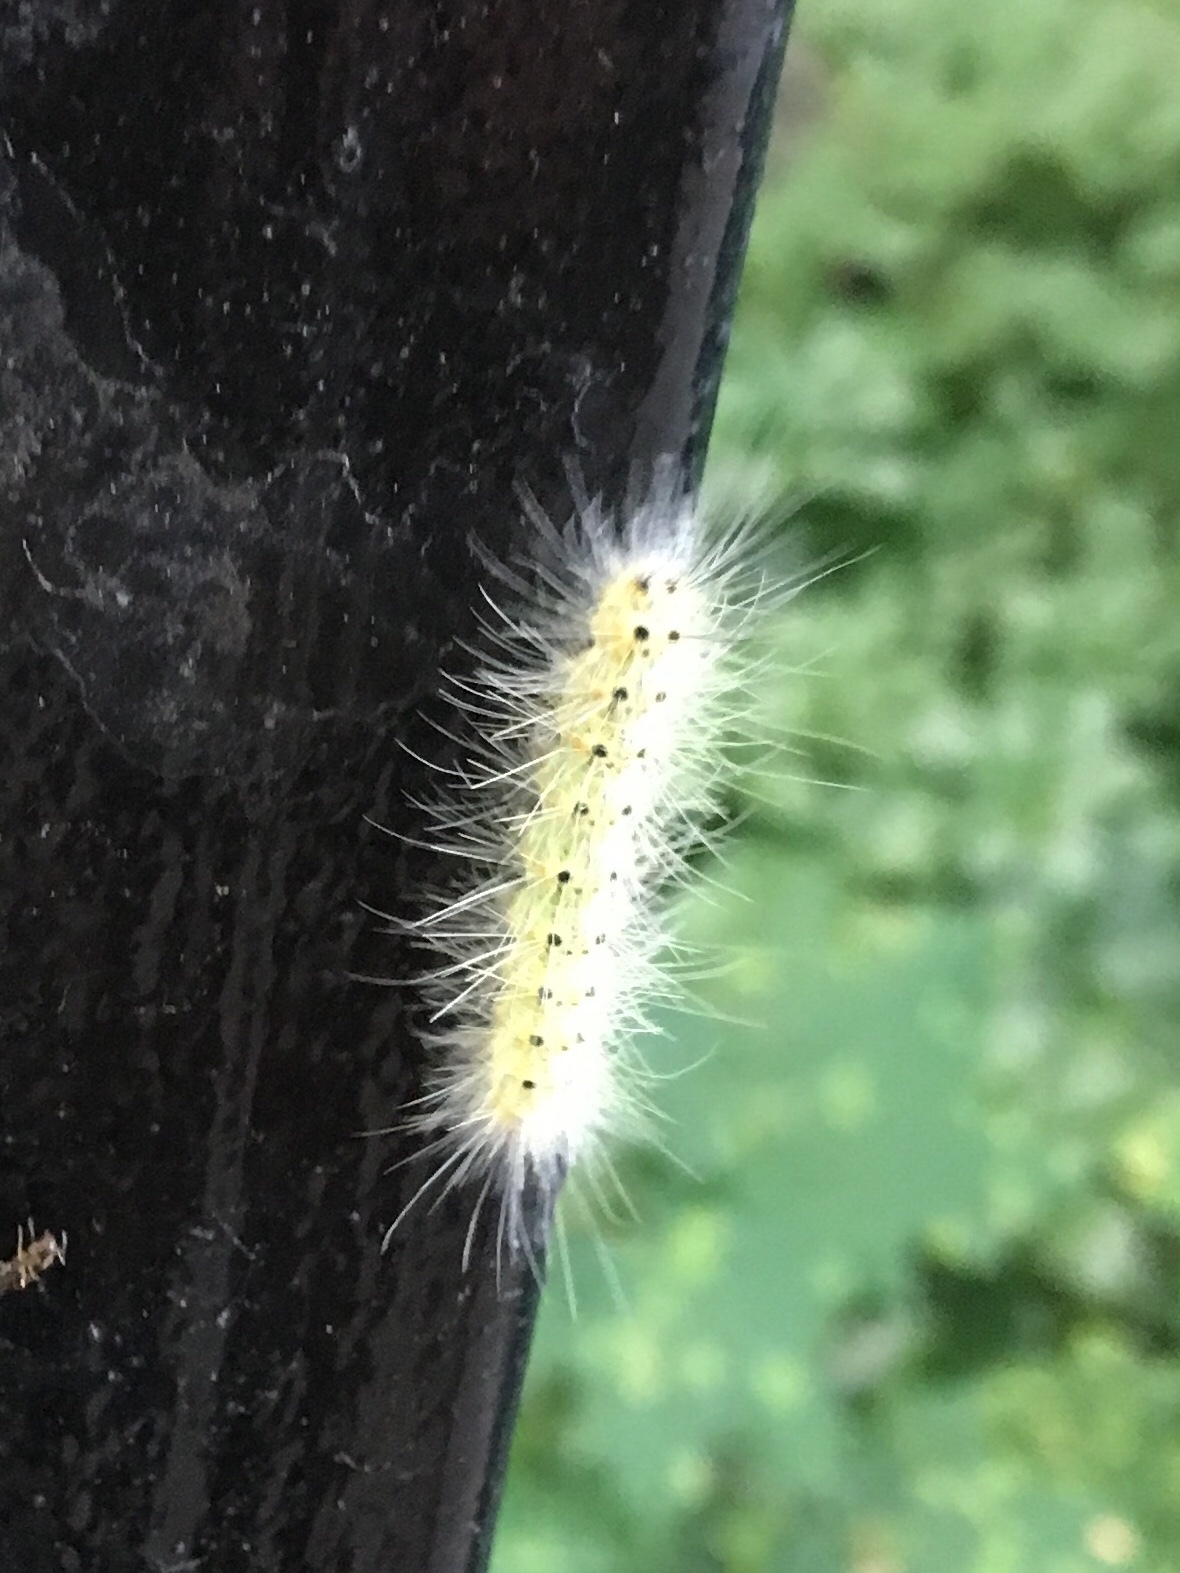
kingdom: Animalia
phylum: Arthropoda
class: Insecta
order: Lepidoptera
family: Erebidae
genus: Hyphantria
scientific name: Hyphantria cunea
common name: American white moth
